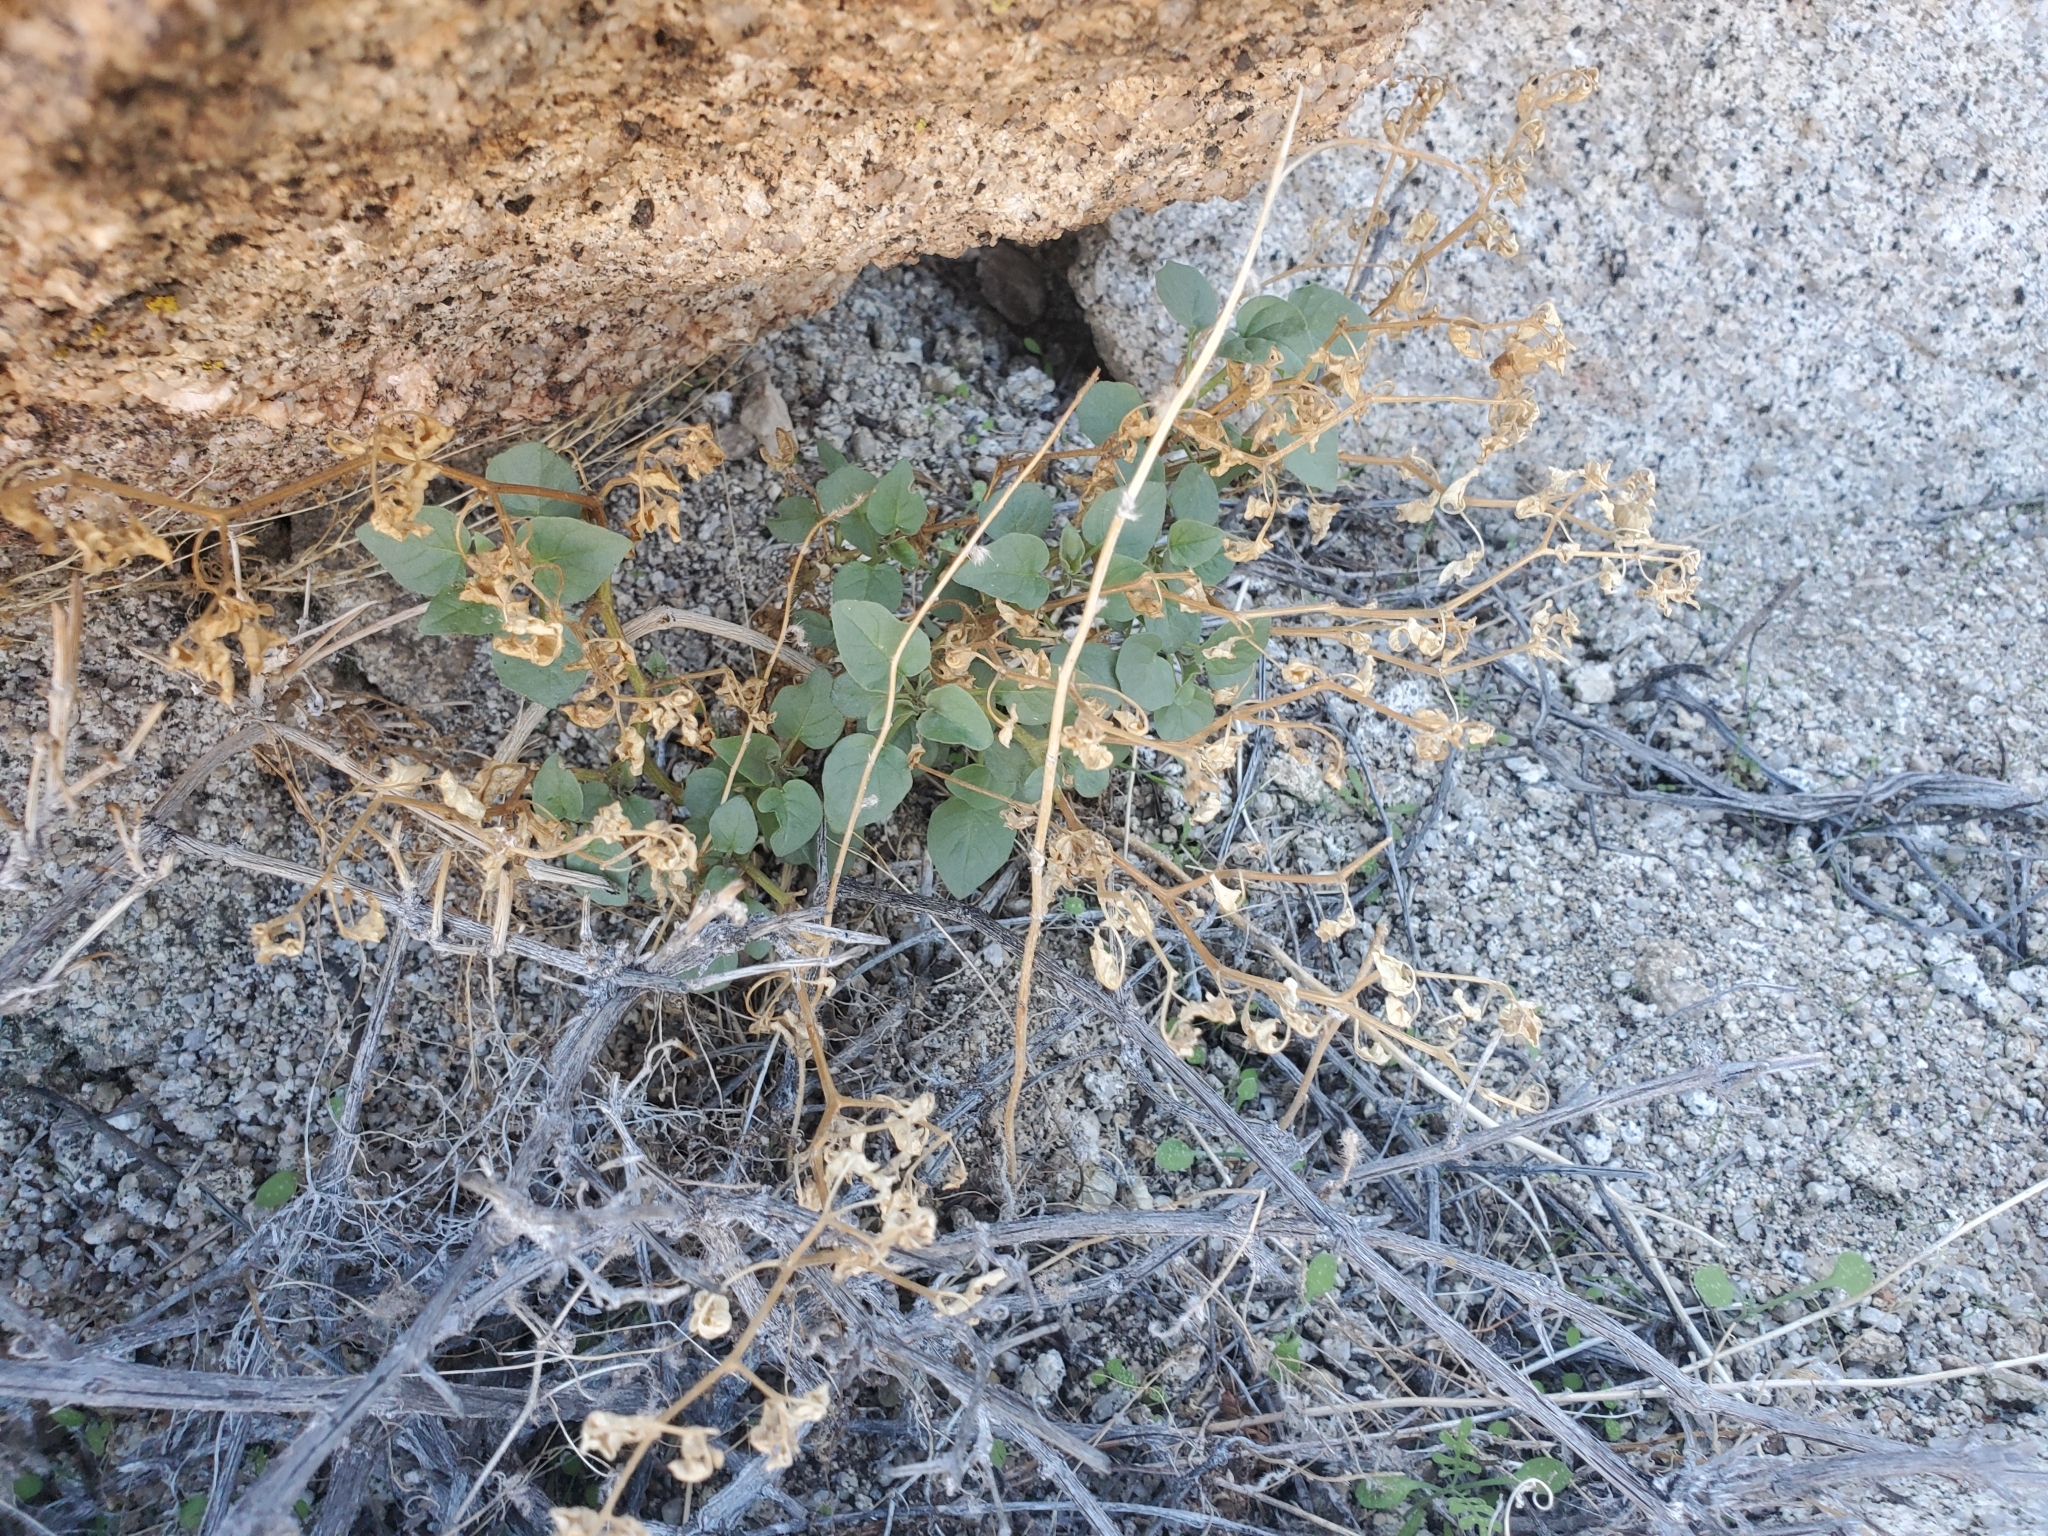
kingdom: Plantae
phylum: Tracheophyta
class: Magnoliopsida
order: Solanales
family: Solanaceae
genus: Physalis
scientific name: Physalis crassifolia
